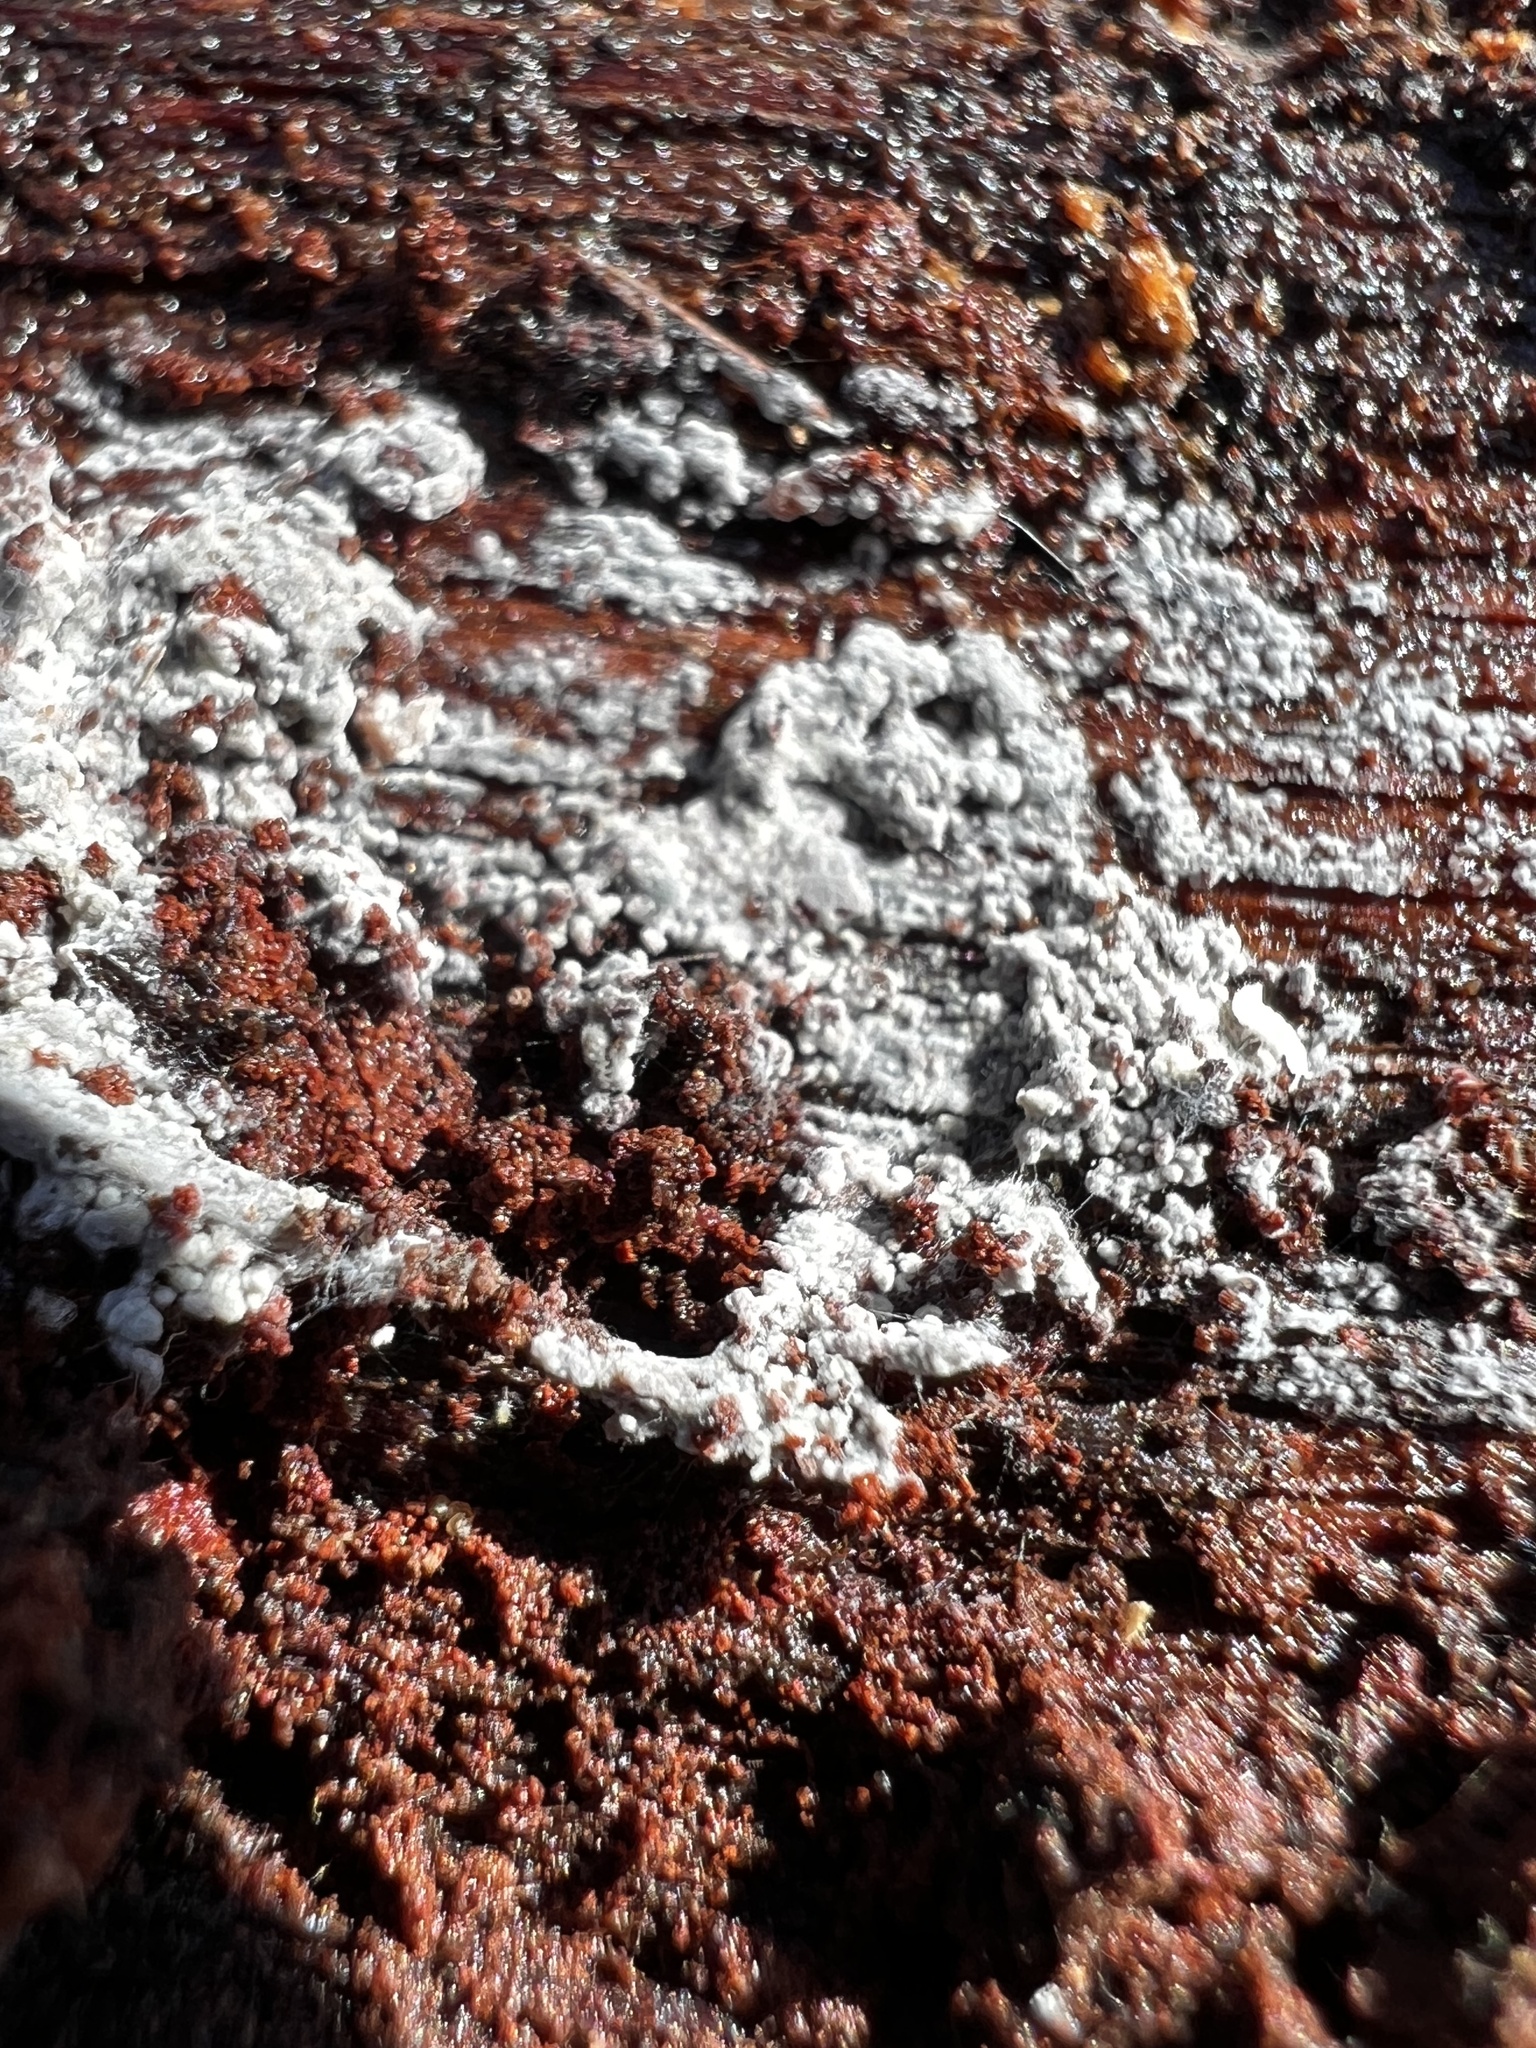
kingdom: Fungi
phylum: Basidiomycota
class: Agaricomycetes
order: Atheliales
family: Atheliaceae
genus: Byssocorticium
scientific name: Byssocorticium atrovirens
